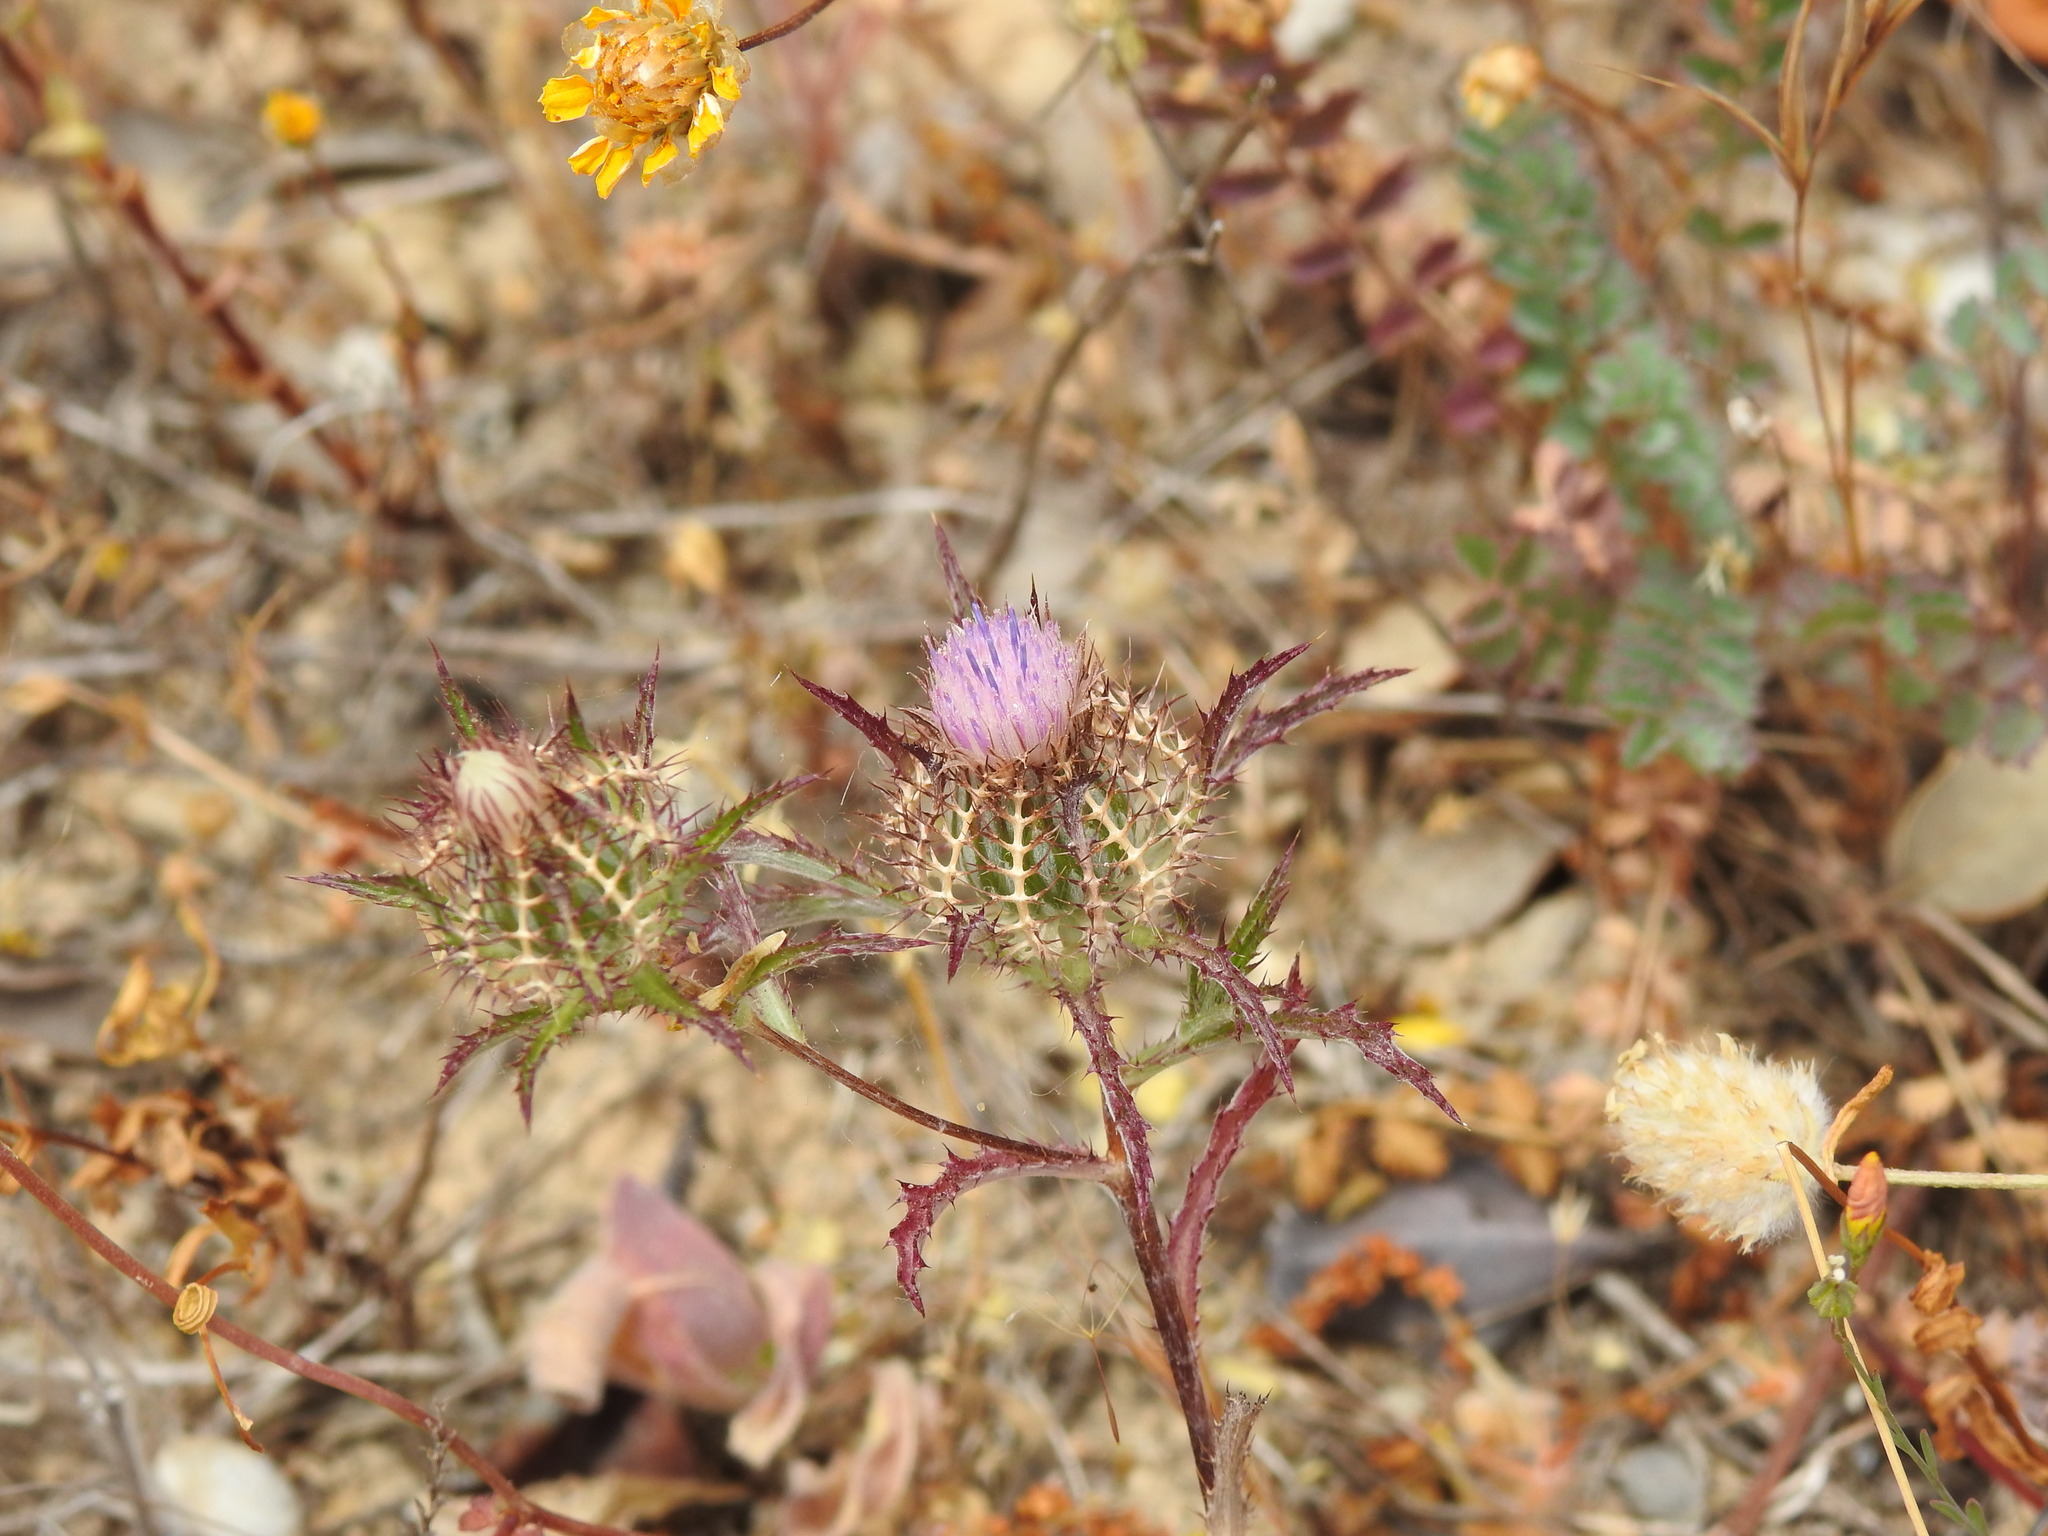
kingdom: Plantae
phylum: Tracheophyta
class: Magnoliopsida
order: Asterales
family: Asteraceae
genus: Atractylis
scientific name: Atractylis cancellata
